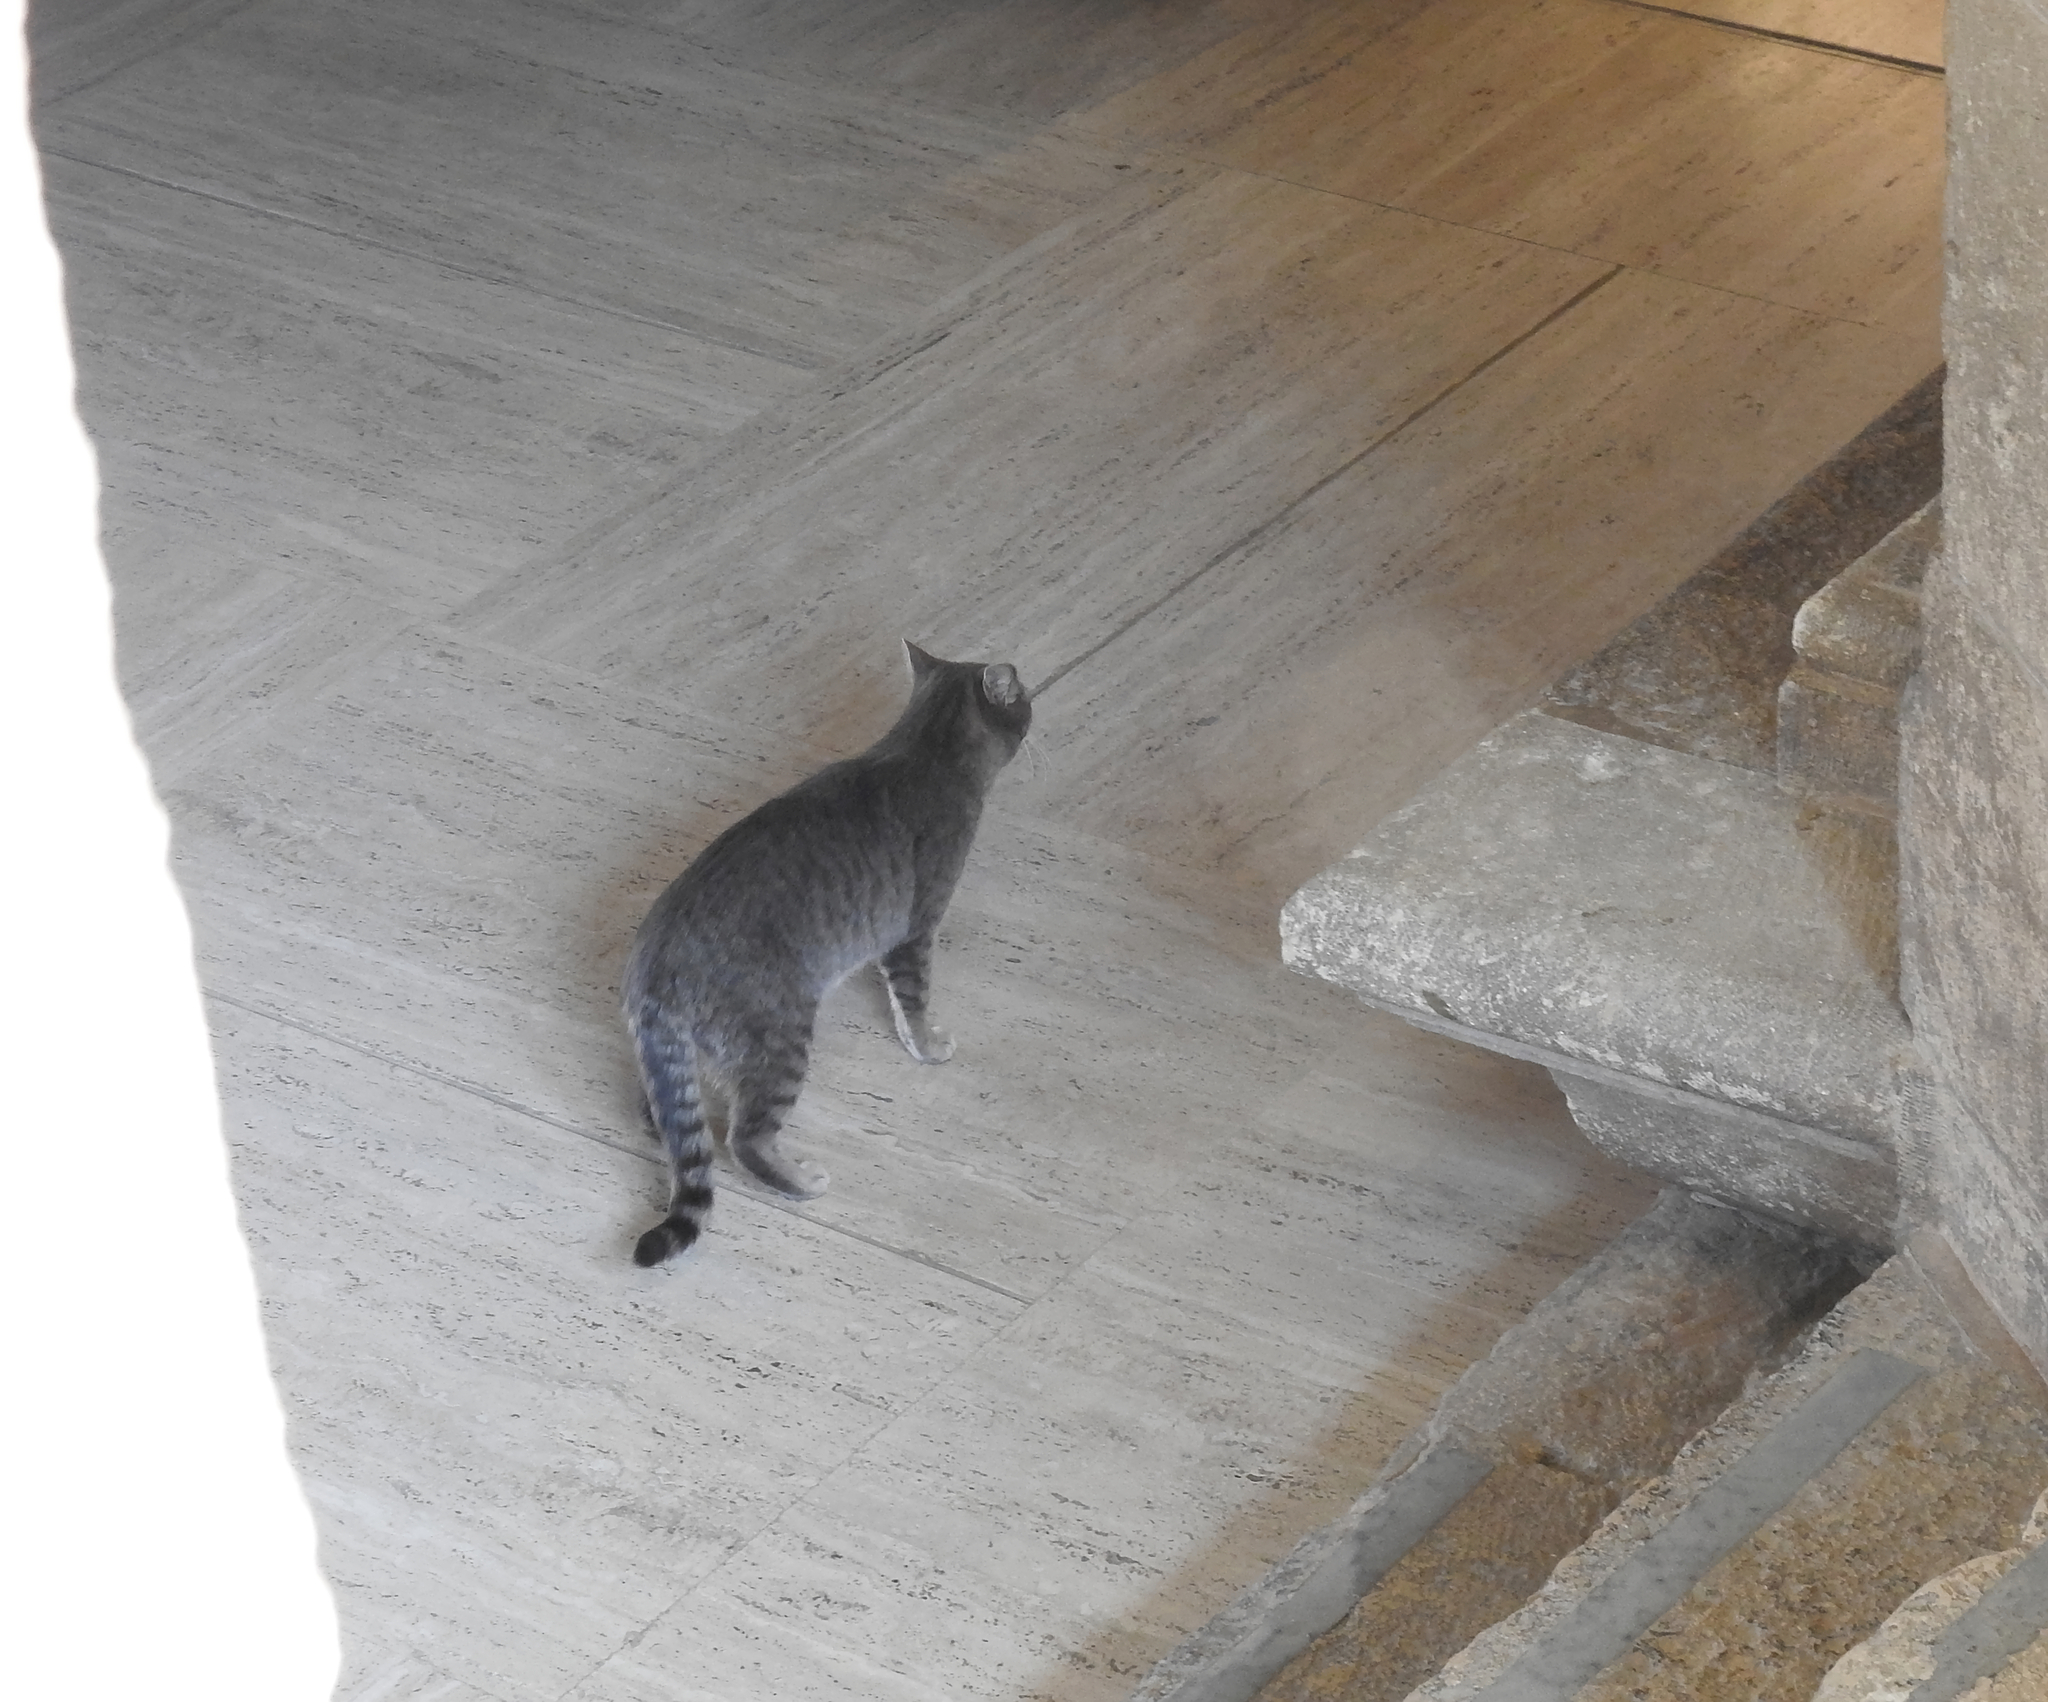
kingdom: Animalia
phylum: Chordata
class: Mammalia
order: Carnivora
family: Felidae
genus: Felis
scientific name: Felis catus
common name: Domestic cat
